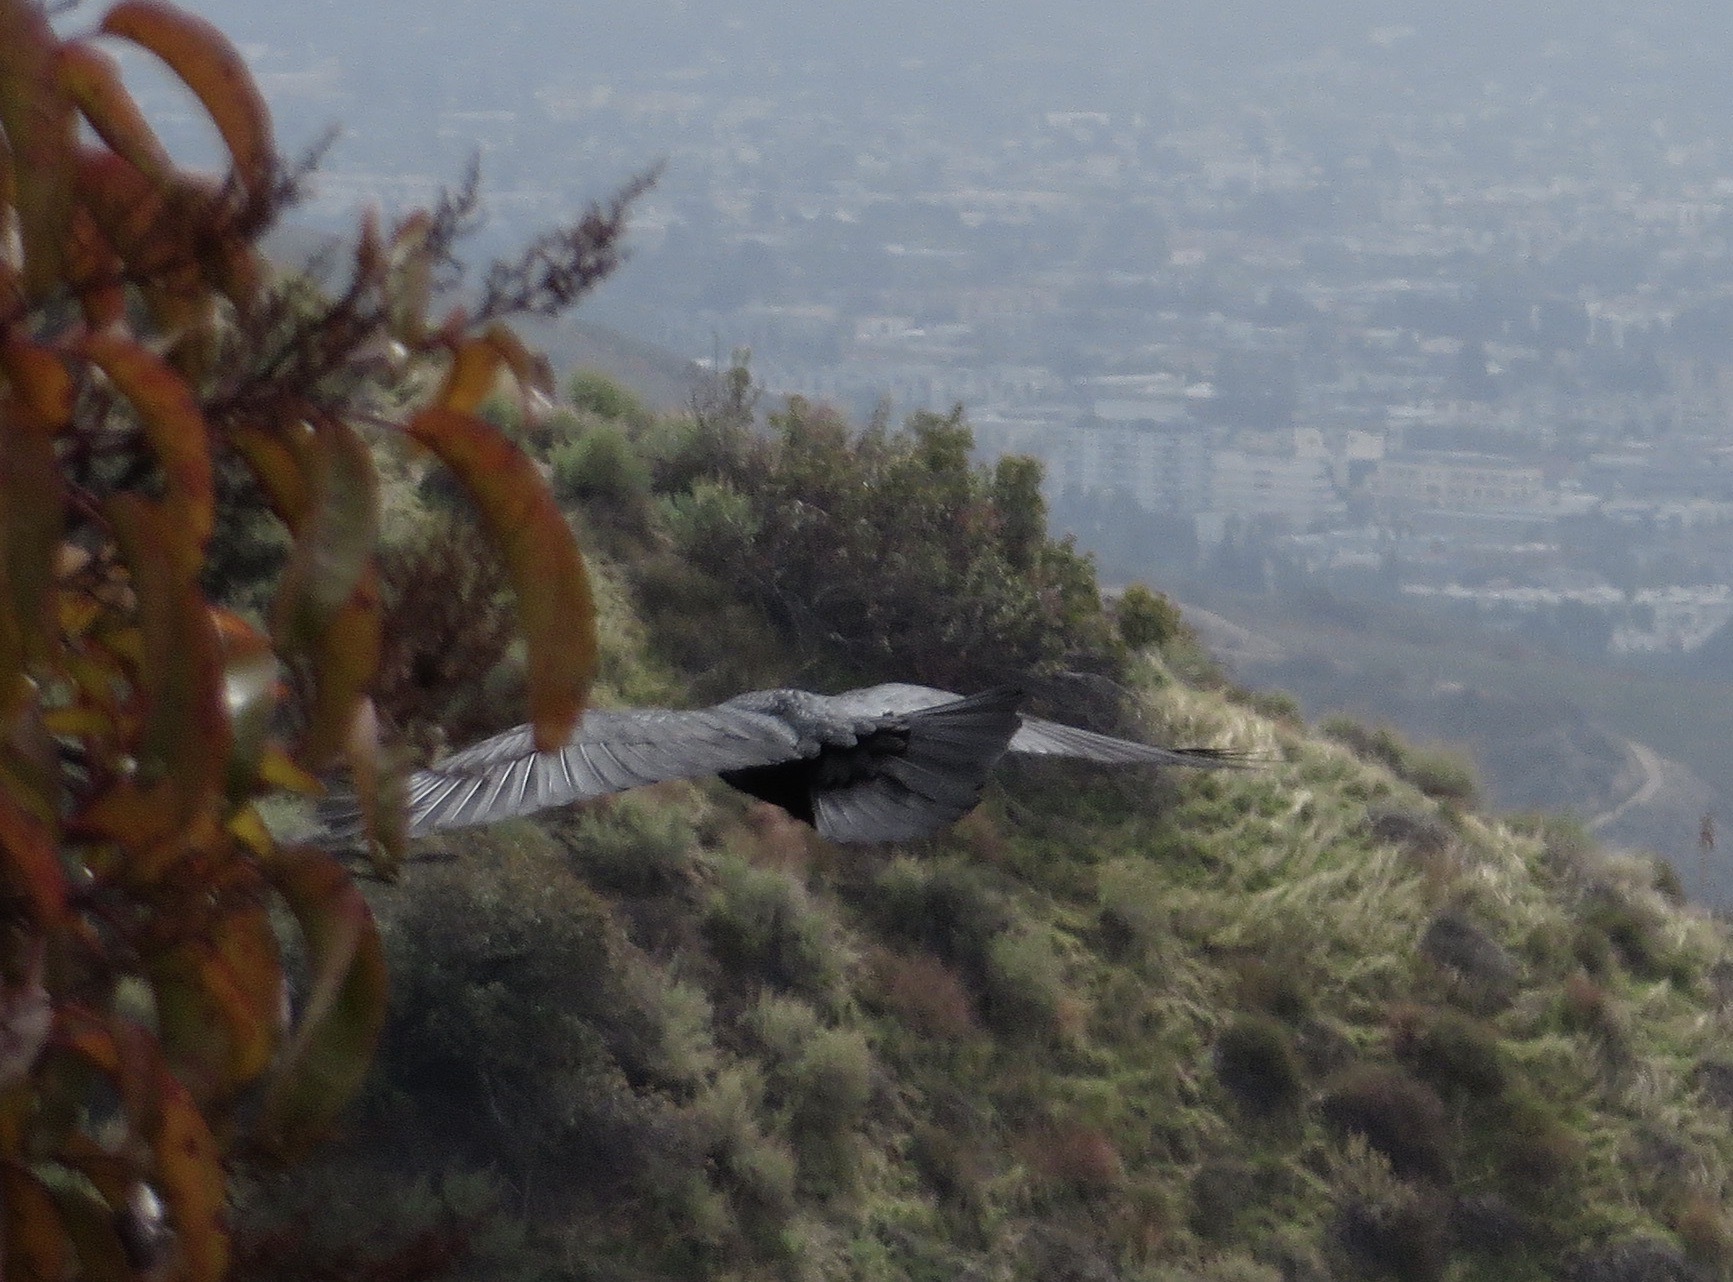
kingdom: Animalia
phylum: Chordata
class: Aves
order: Passeriformes
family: Corvidae
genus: Corvus
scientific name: Corvus corax
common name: Common raven
